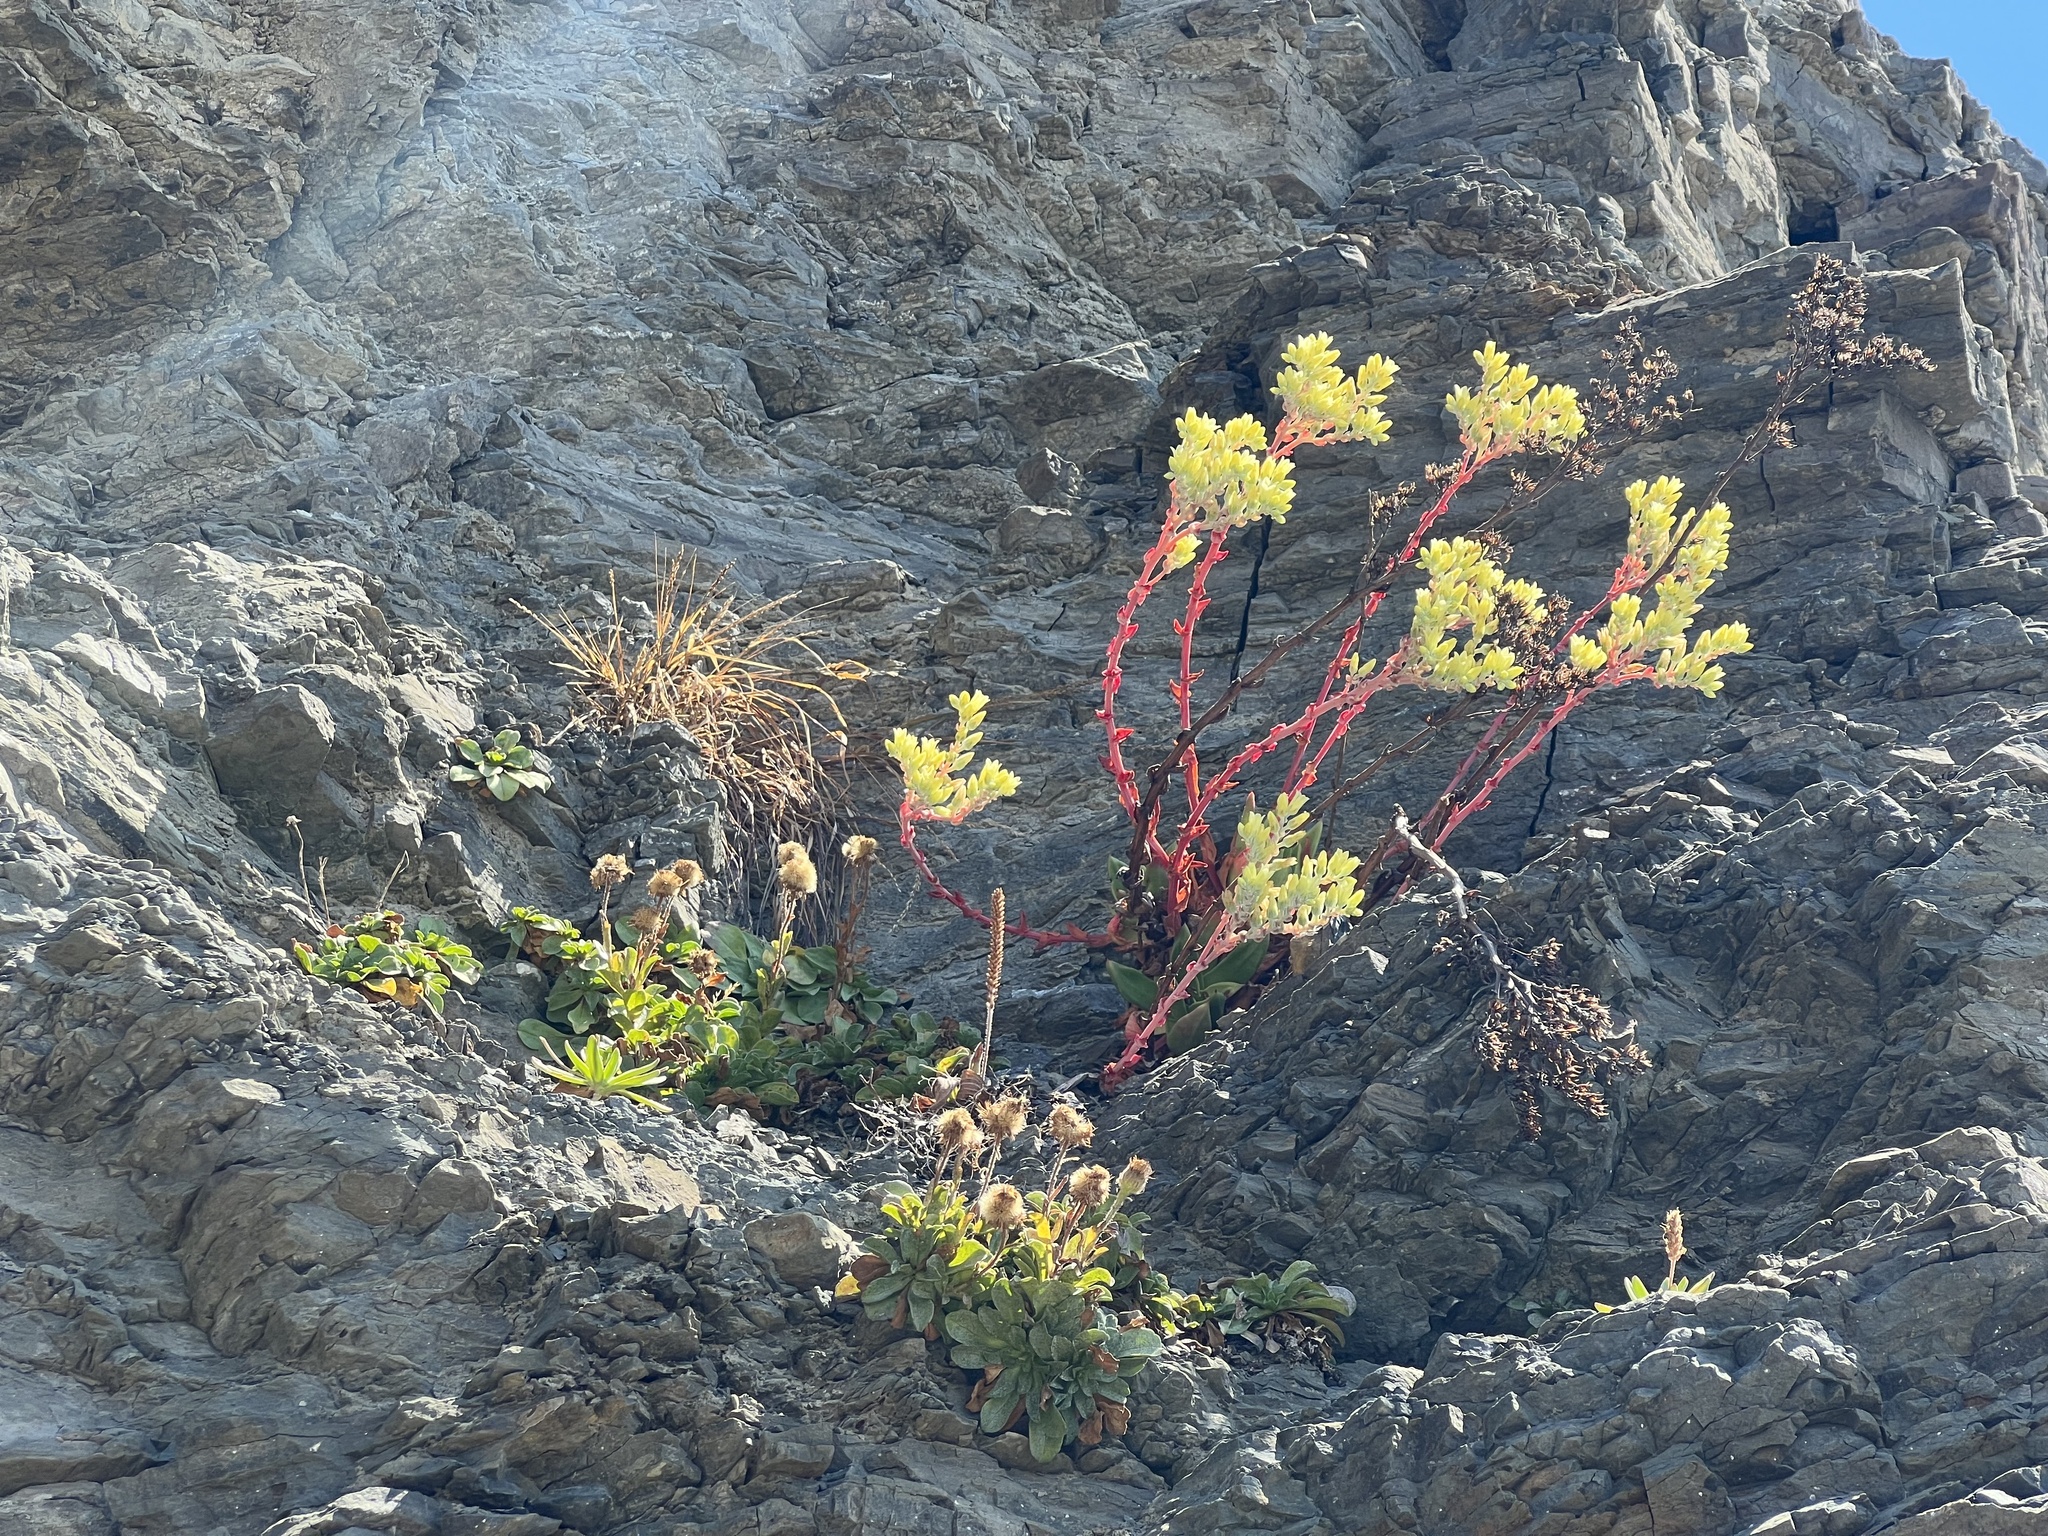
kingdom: Plantae
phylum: Tracheophyta
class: Magnoliopsida
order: Saxifragales
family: Crassulaceae
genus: Dudleya
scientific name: Dudleya farinosa
